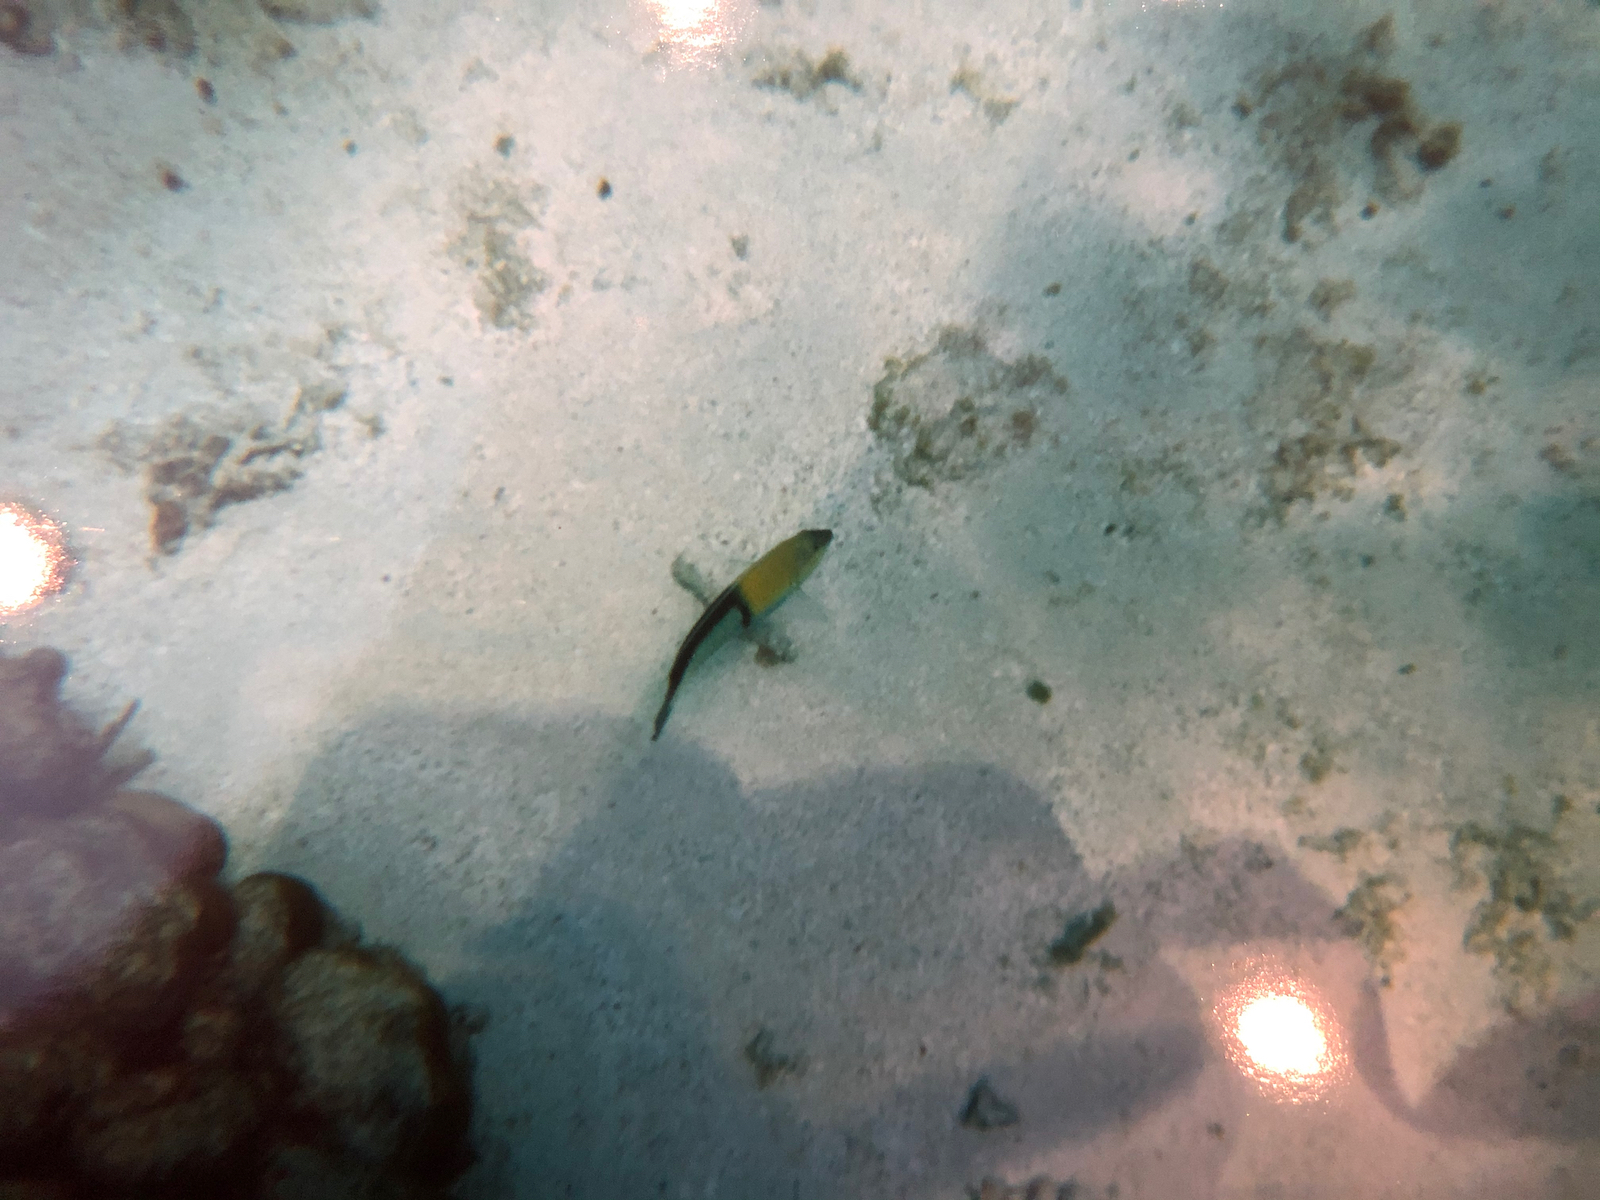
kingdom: Animalia
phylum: Chordata
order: Perciformes
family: Labridae
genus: Halichoeres
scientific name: Halichoeres garnoti
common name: Yellowhead wrasse
